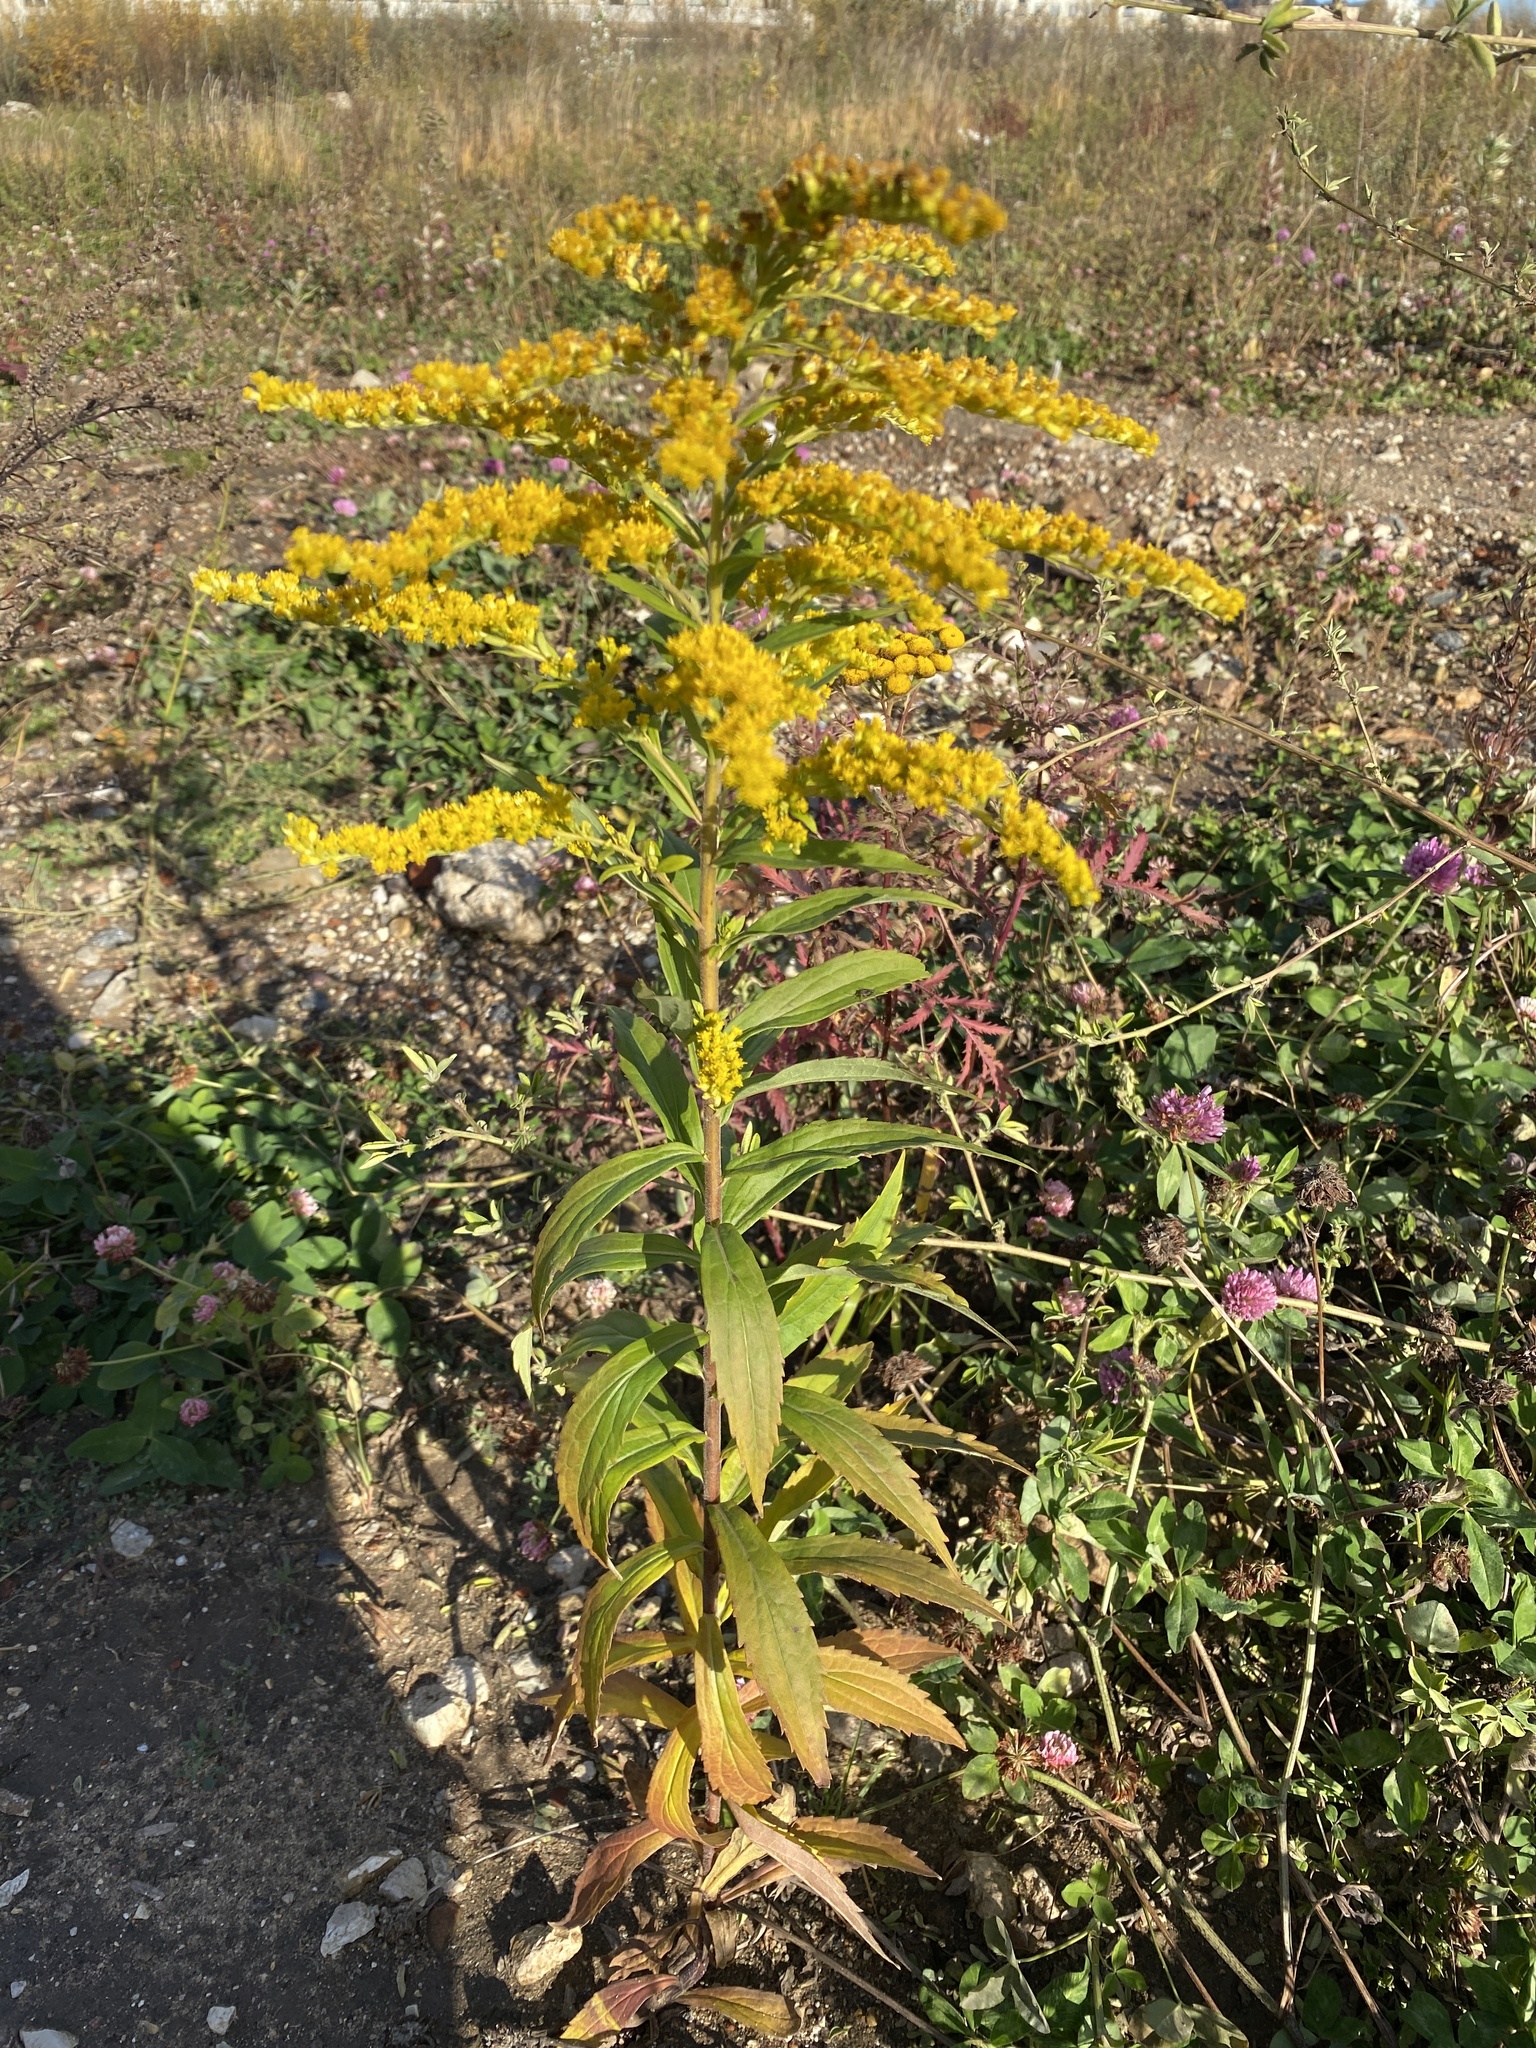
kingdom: Plantae
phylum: Tracheophyta
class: Magnoliopsida
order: Asterales
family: Asteraceae
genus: Solidago
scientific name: Solidago canadensis
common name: Canada goldenrod
